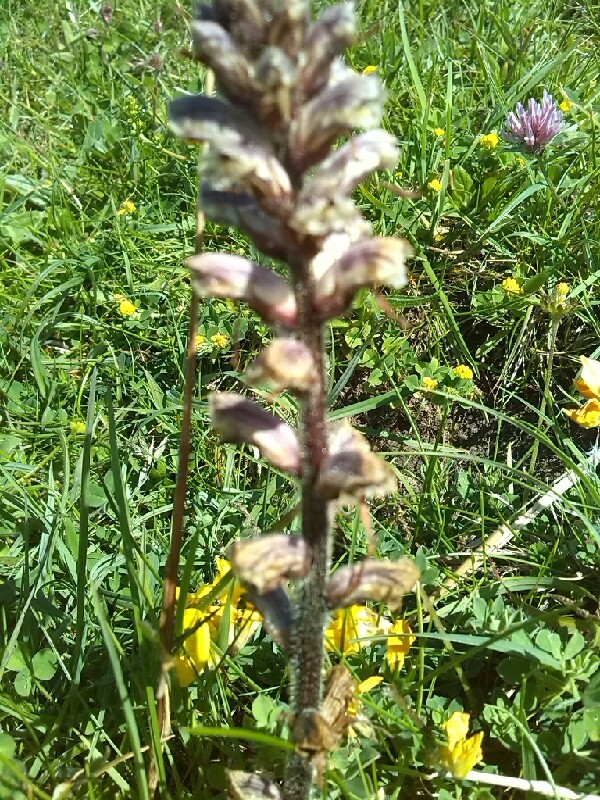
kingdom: Plantae
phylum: Tracheophyta
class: Magnoliopsida
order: Lamiales
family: Orobanchaceae
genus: Orobanche
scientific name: Orobanche minor
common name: Common broomrape
